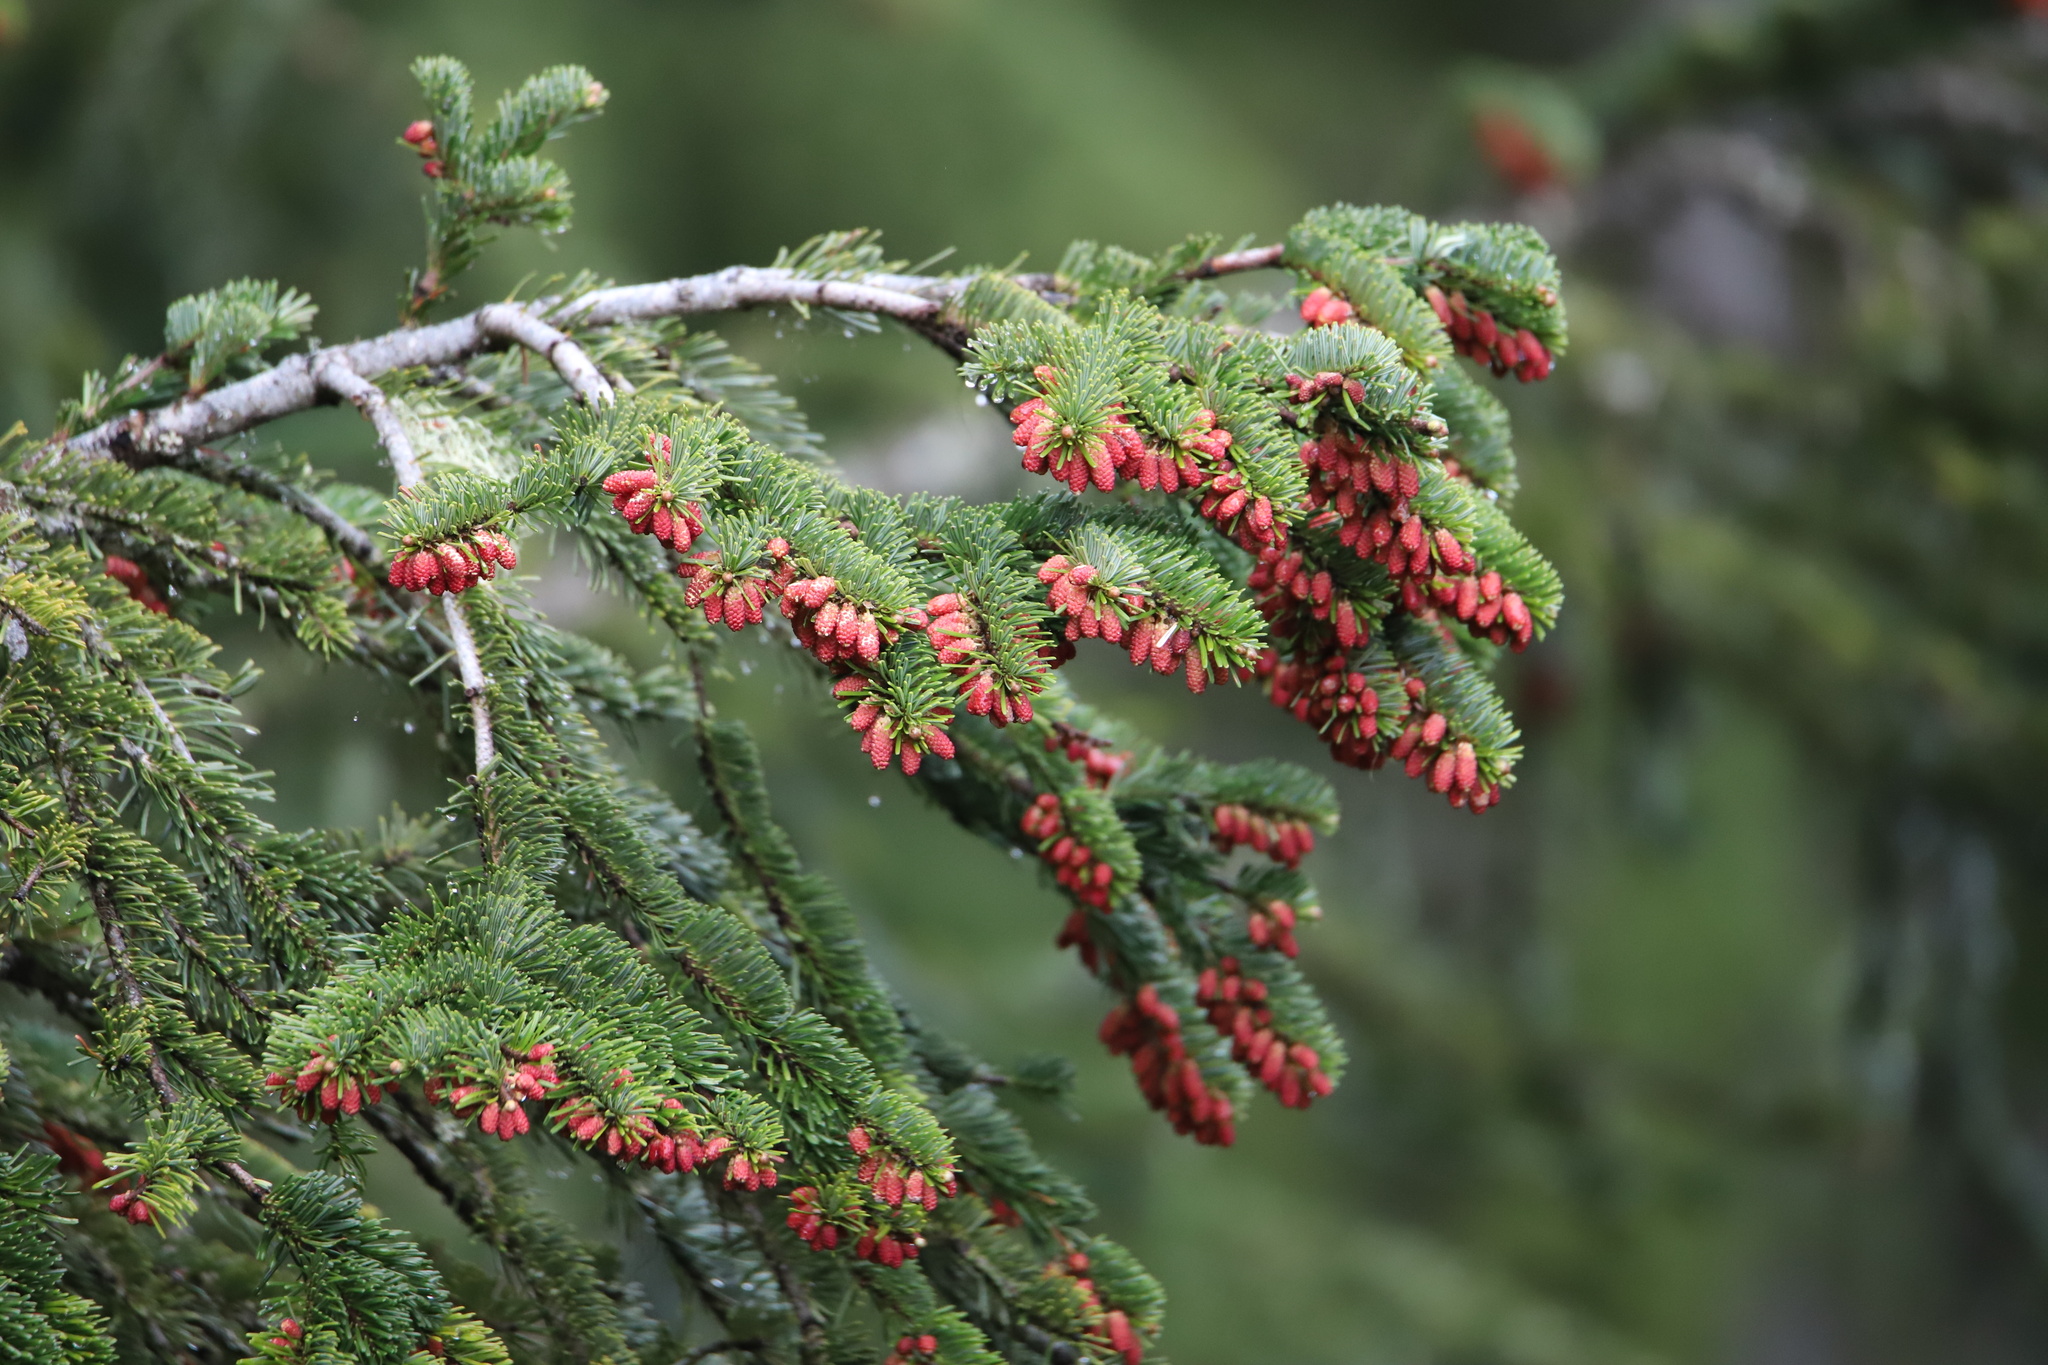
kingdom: Plantae
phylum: Tracheophyta
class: Pinopsida
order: Pinales
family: Pinaceae
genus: Abies
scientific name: Abies lasiocarpa
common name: Subalpine fir
